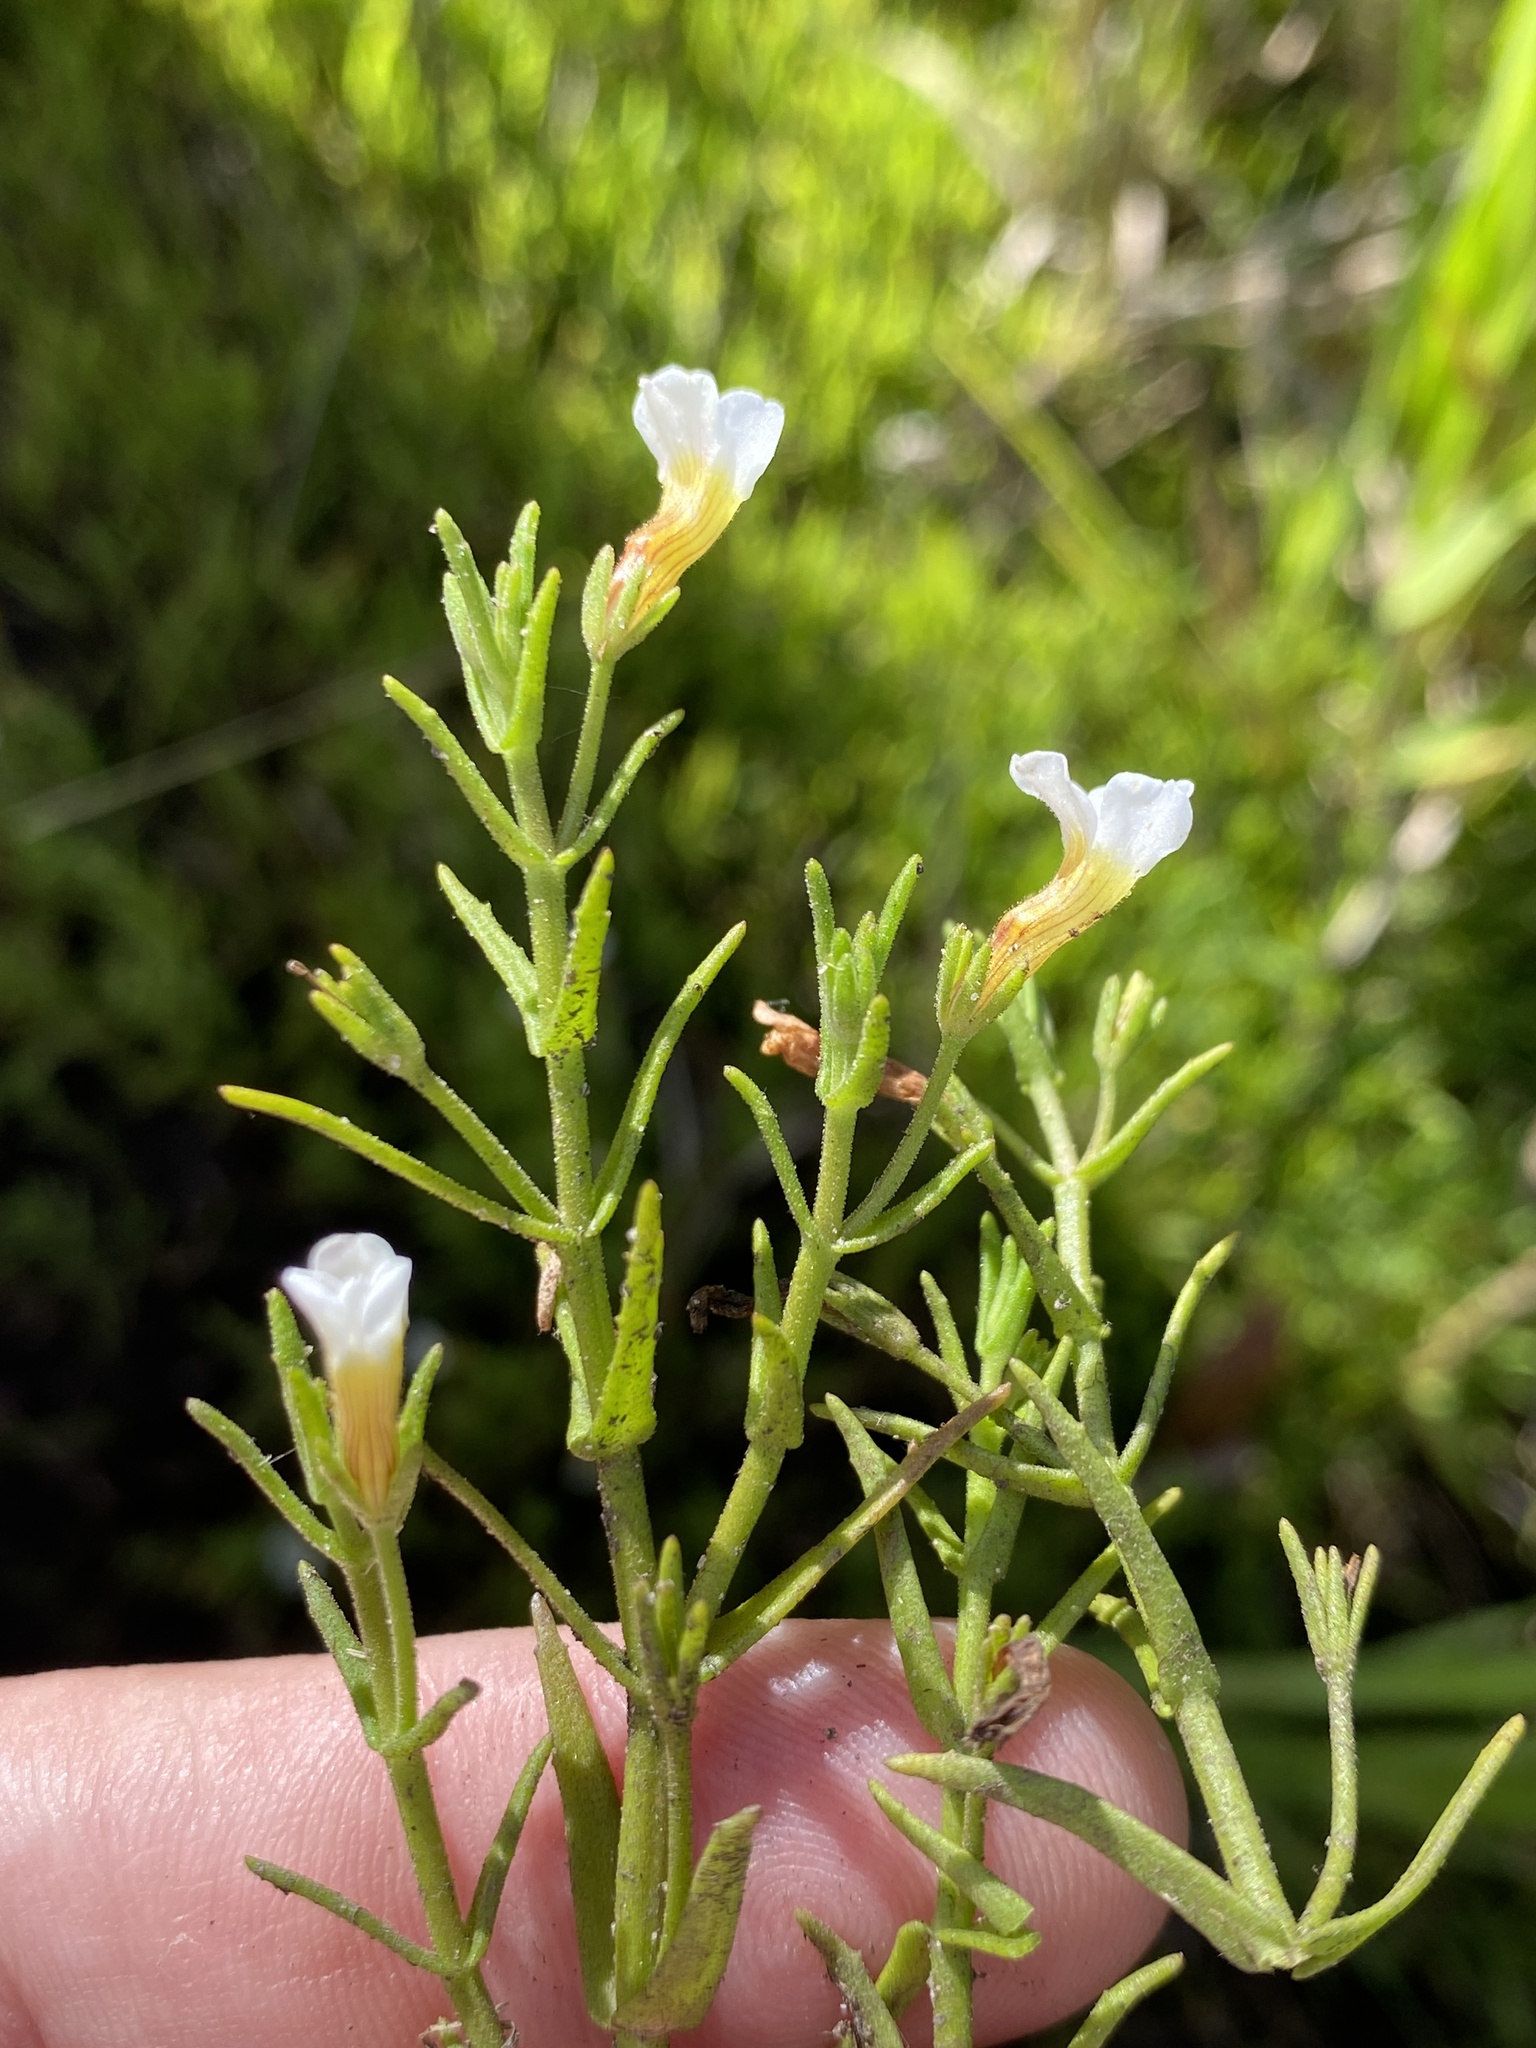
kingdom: Plantae
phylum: Tracheophyta
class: Magnoliopsida
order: Lamiales
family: Plantaginaceae
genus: Gratiola
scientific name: Gratiola ramosa
